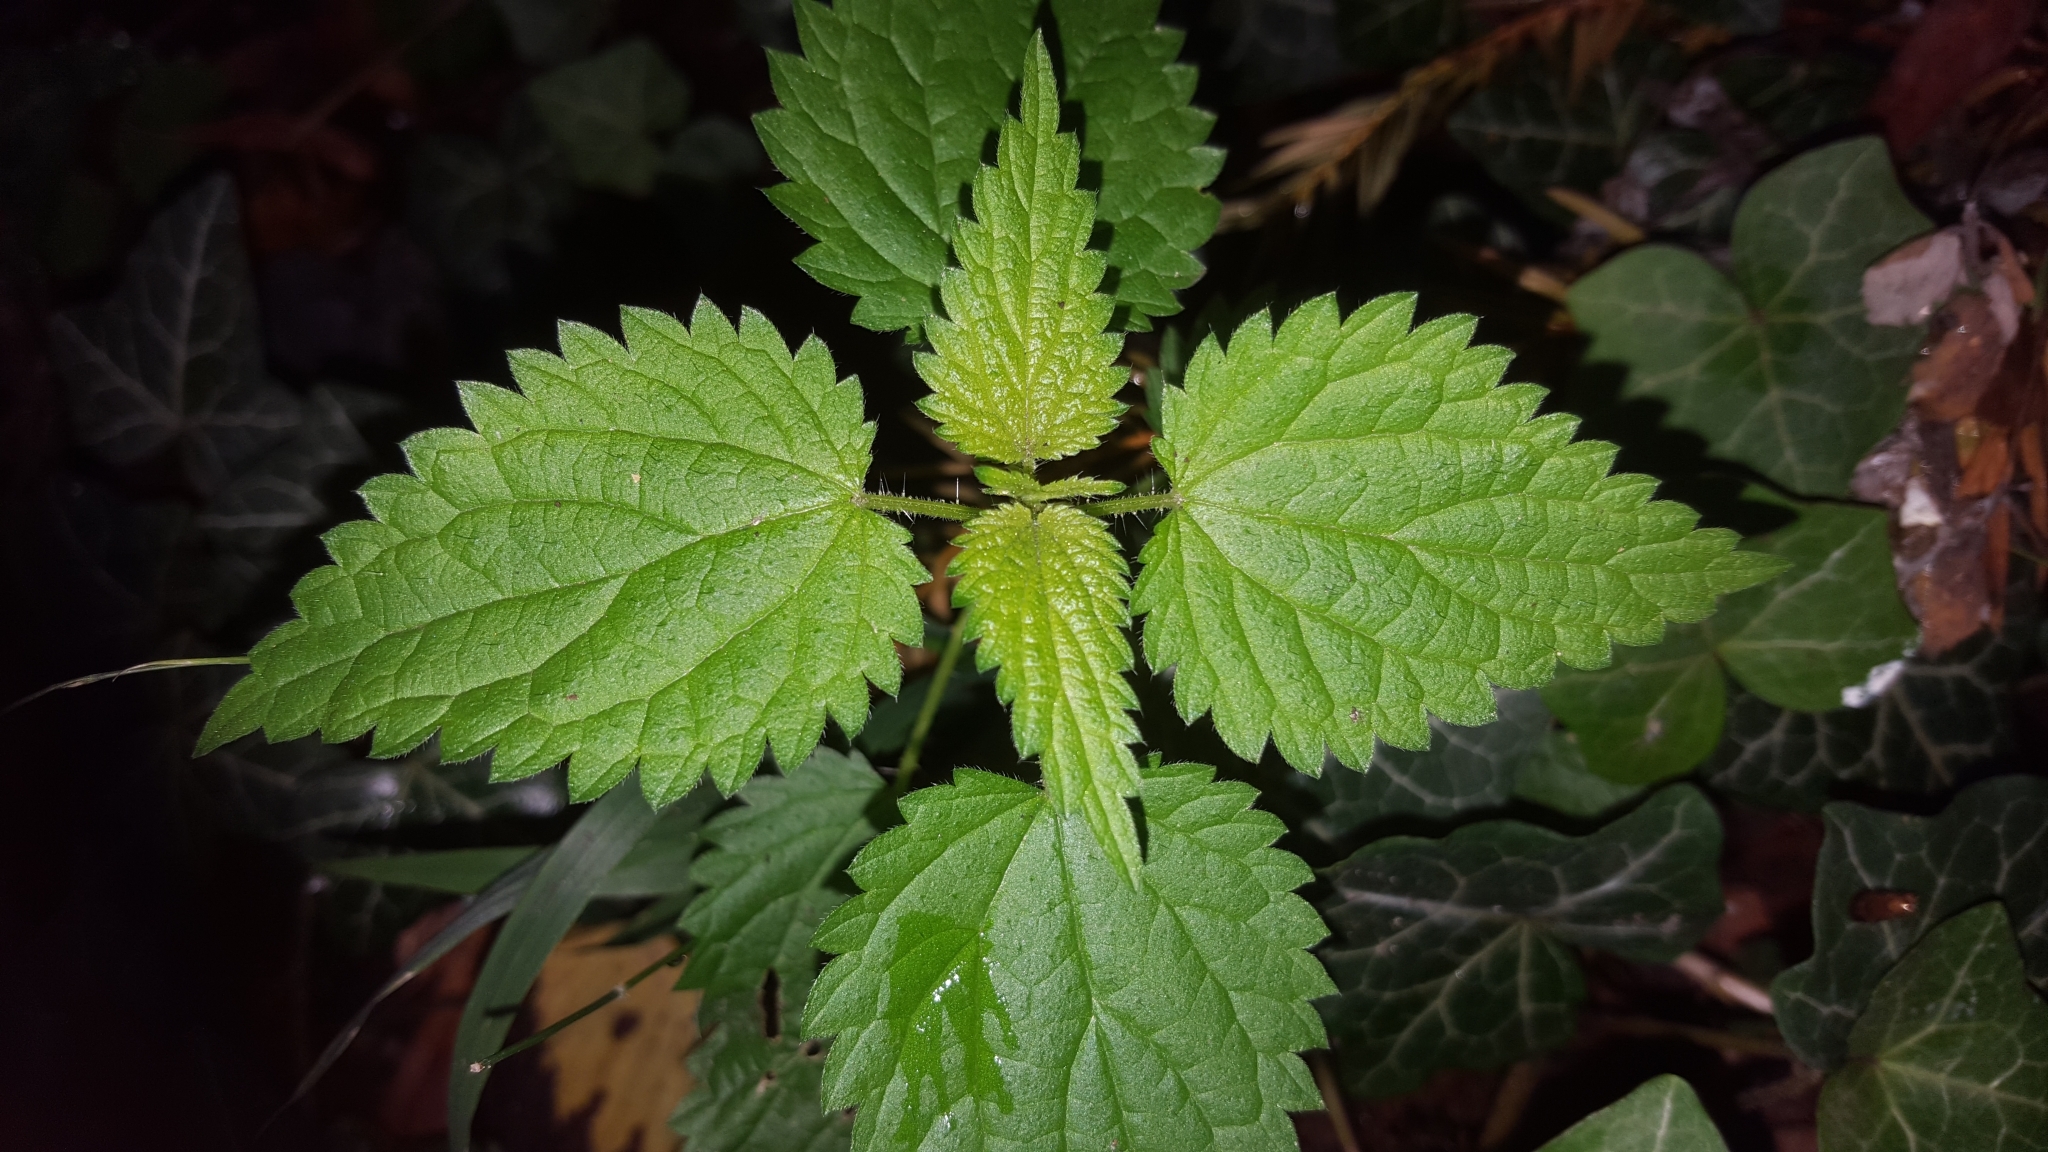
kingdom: Plantae
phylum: Tracheophyta
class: Magnoliopsida
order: Rosales
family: Urticaceae
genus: Urtica
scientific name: Urtica dioica
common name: Common nettle
